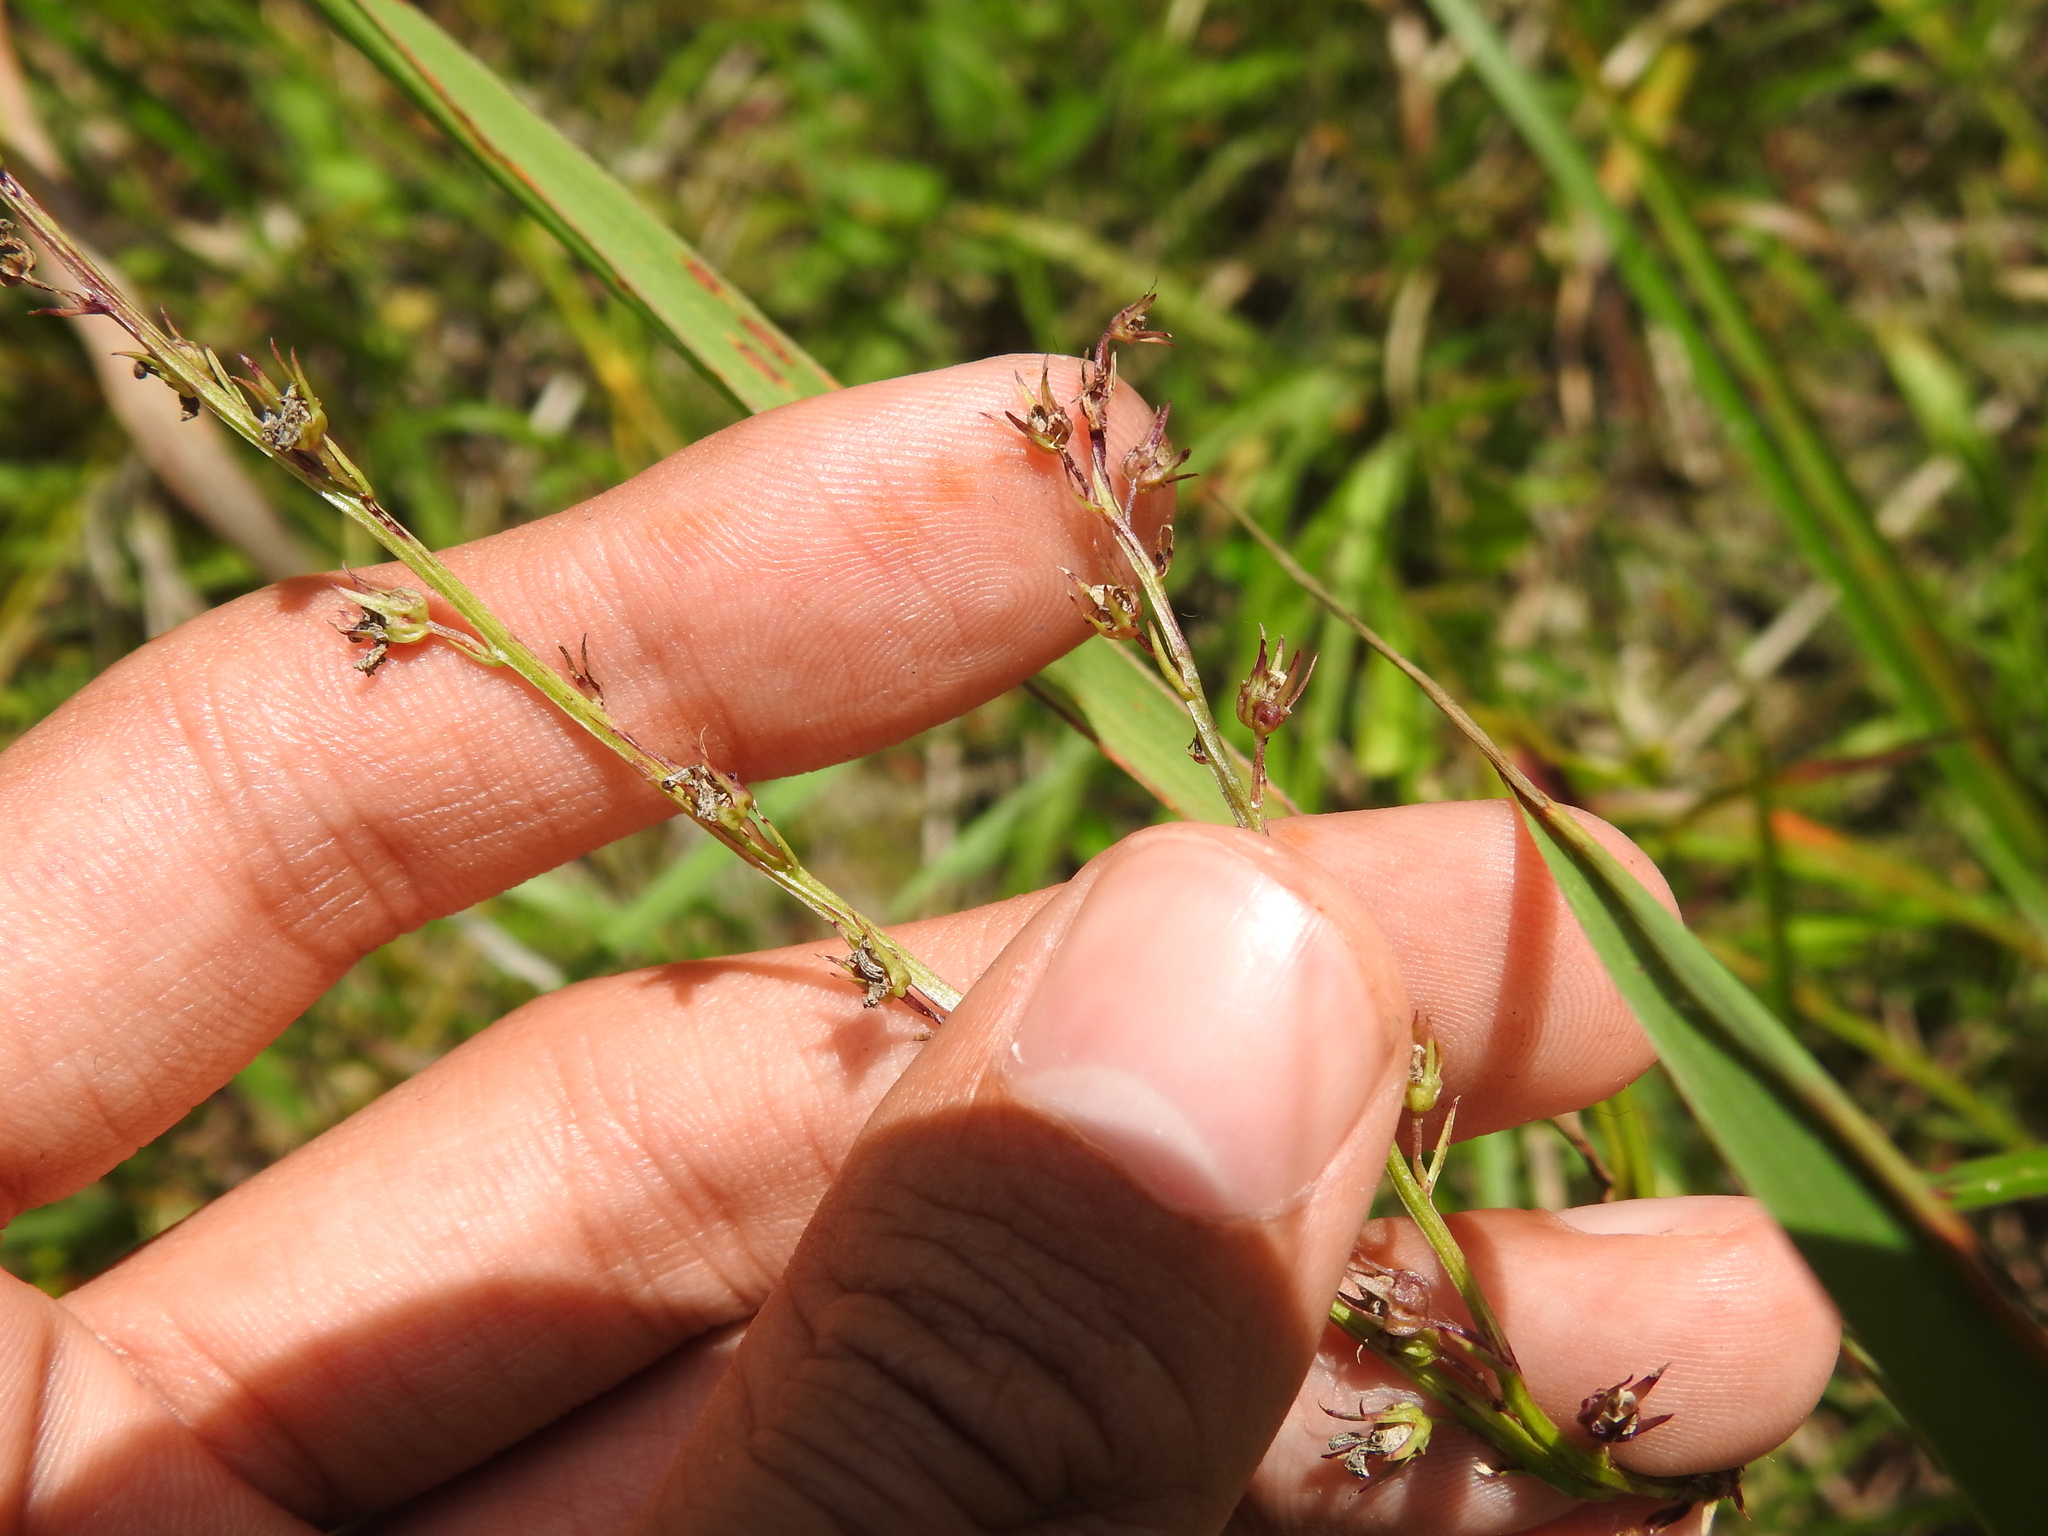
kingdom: Plantae
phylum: Tracheophyta
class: Magnoliopsida
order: Asterales
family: Campanulaceae
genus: Lobelia
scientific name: Lobelia spicata
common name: Pale-spike lobelia
